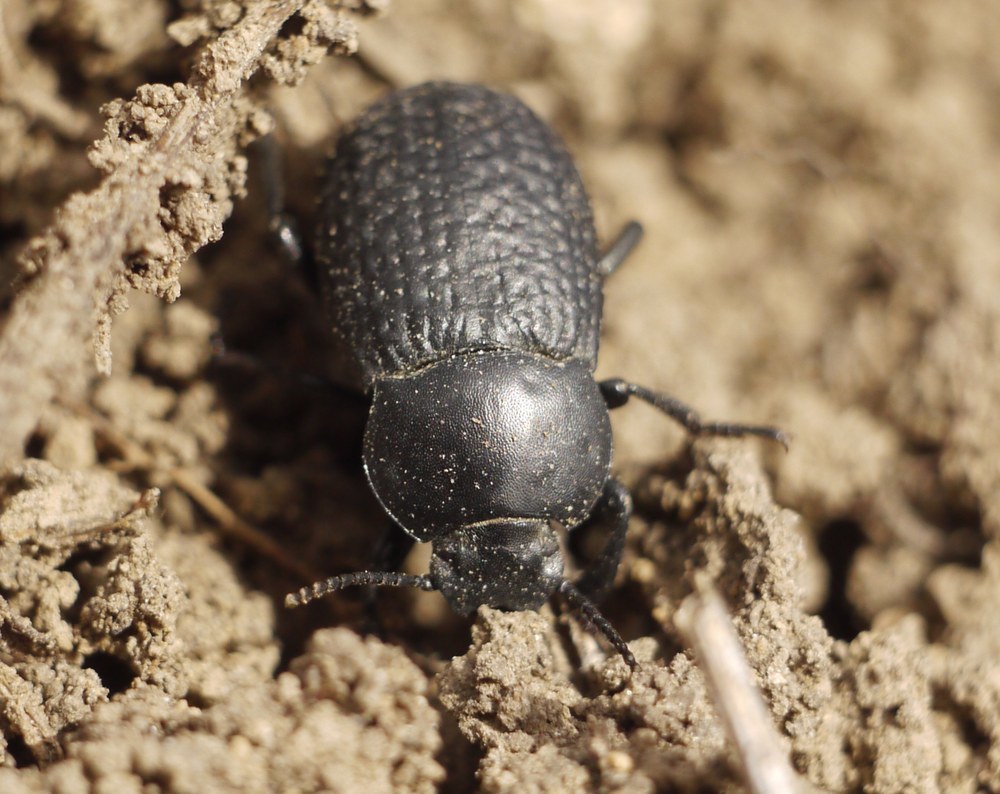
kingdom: Animalia
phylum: Arthropoda
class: Insecta
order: Coleoptera
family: Tenebrionidae
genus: Dendarus
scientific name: Dendarus punctatus
